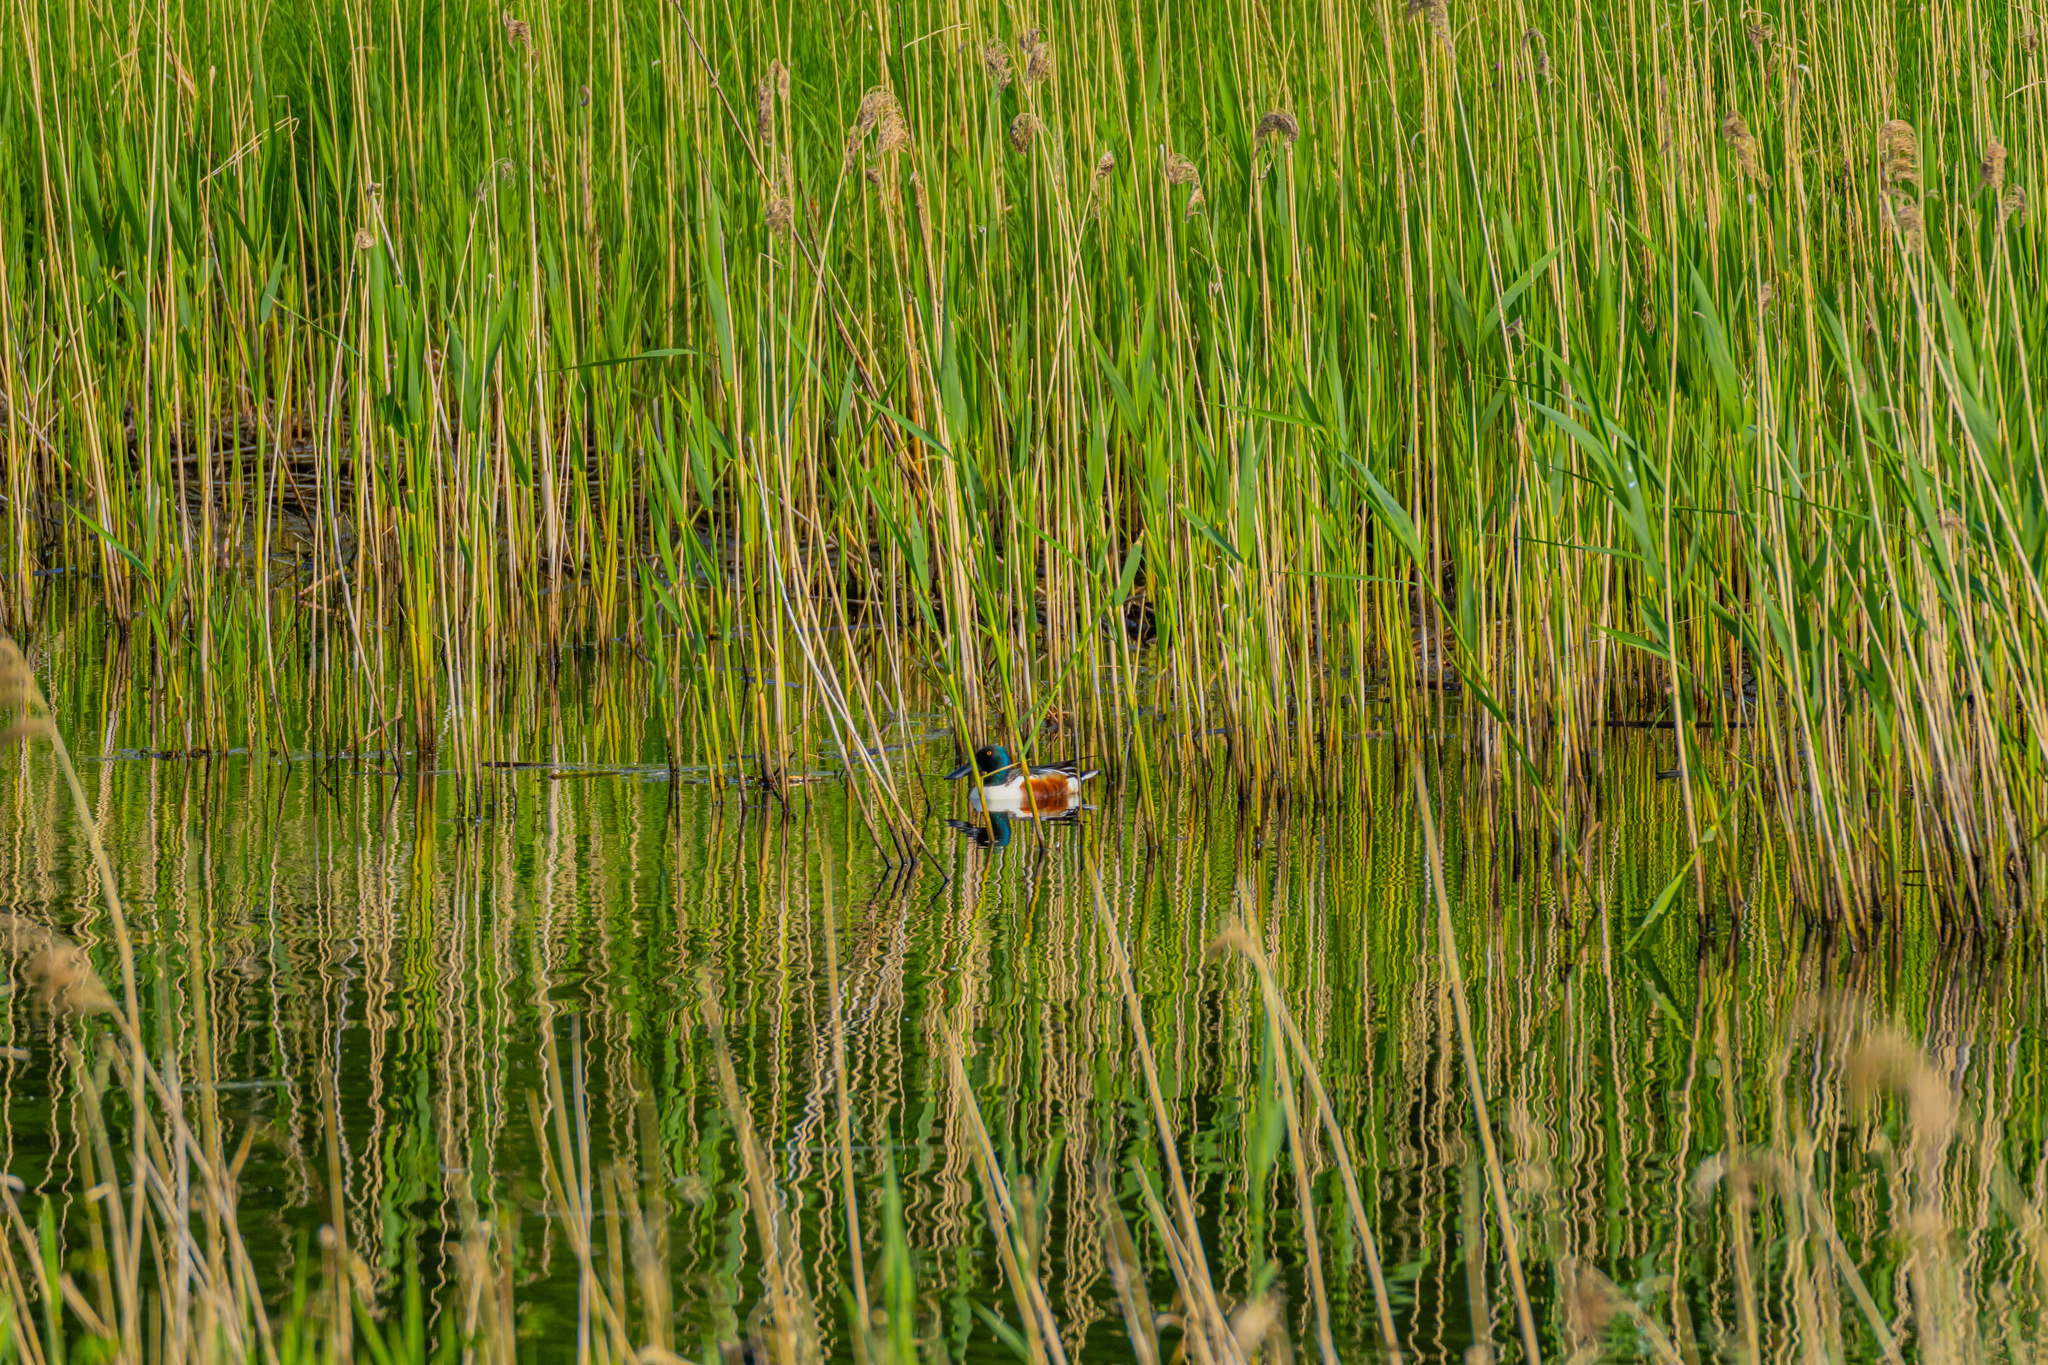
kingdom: Animalia
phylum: Chordata
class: Aves
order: Anseriformes
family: Anatidae
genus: Spatula
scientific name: Spatula clypeata
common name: Northern shoveler
